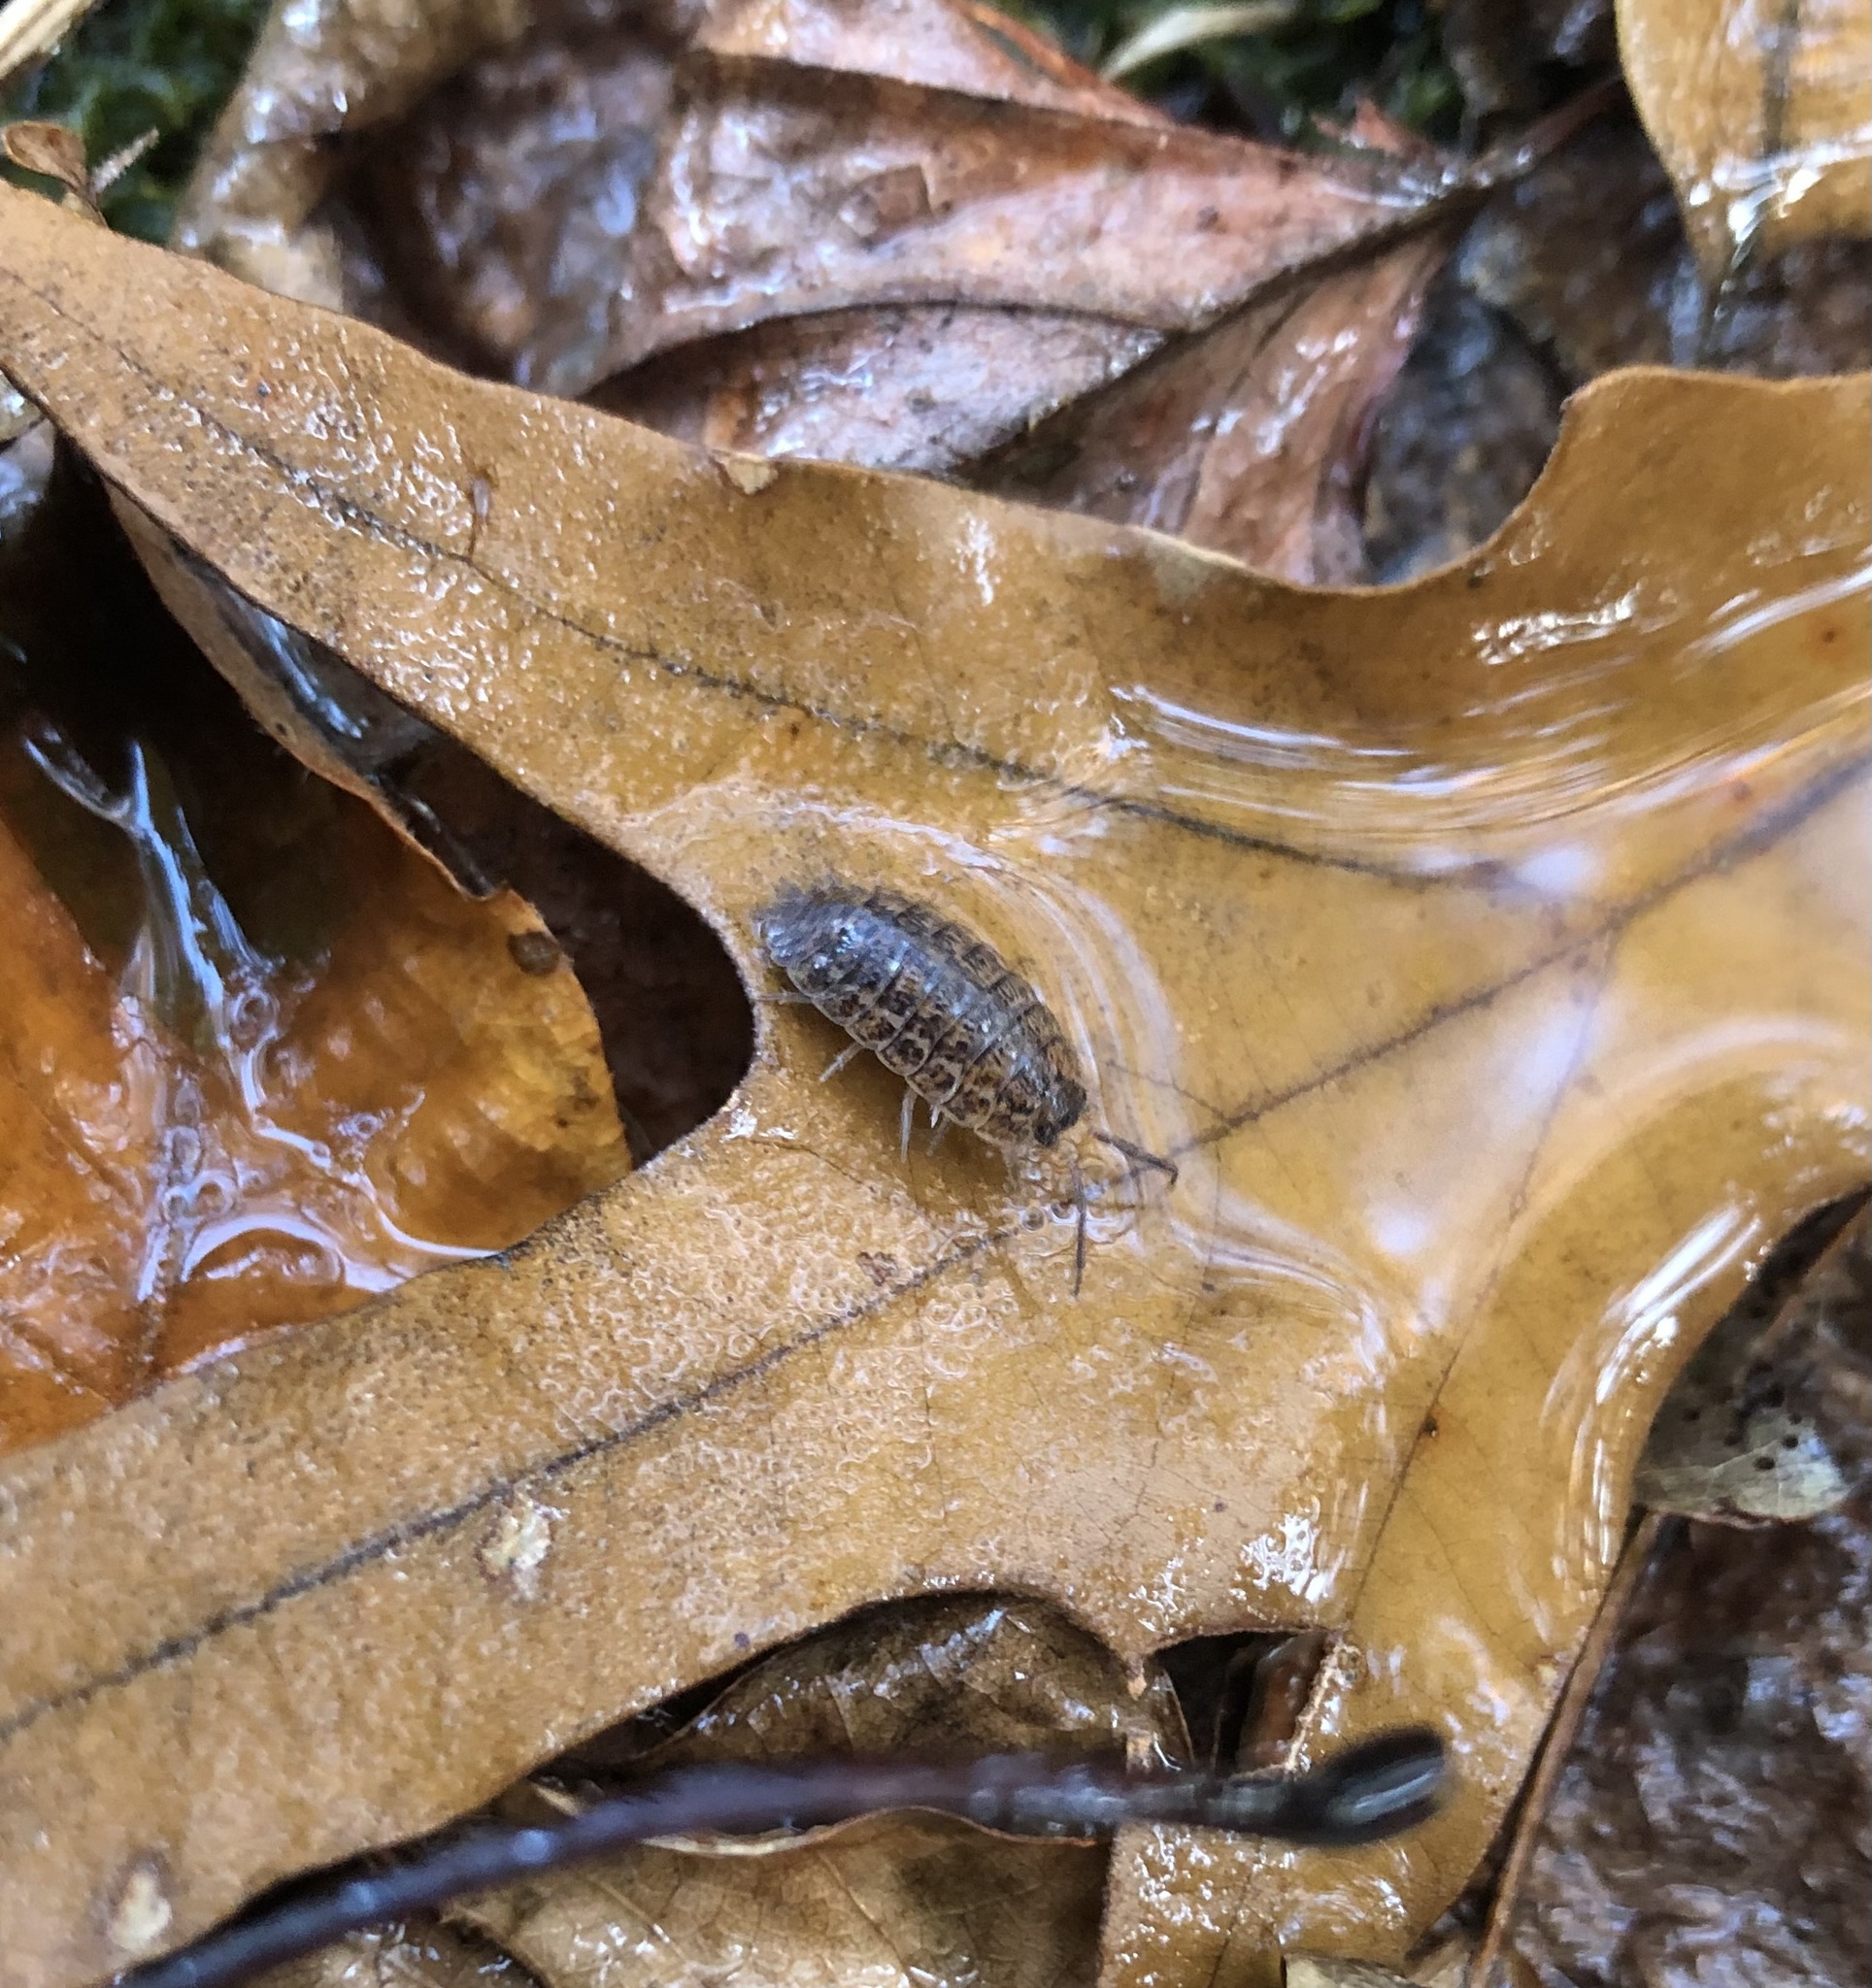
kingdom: Animalia
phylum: Arthropoda
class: Malacostraca
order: Isopoda
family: Trachelipodidae
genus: Trachelipus
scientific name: Trachelipus rathkii
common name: Isopod
